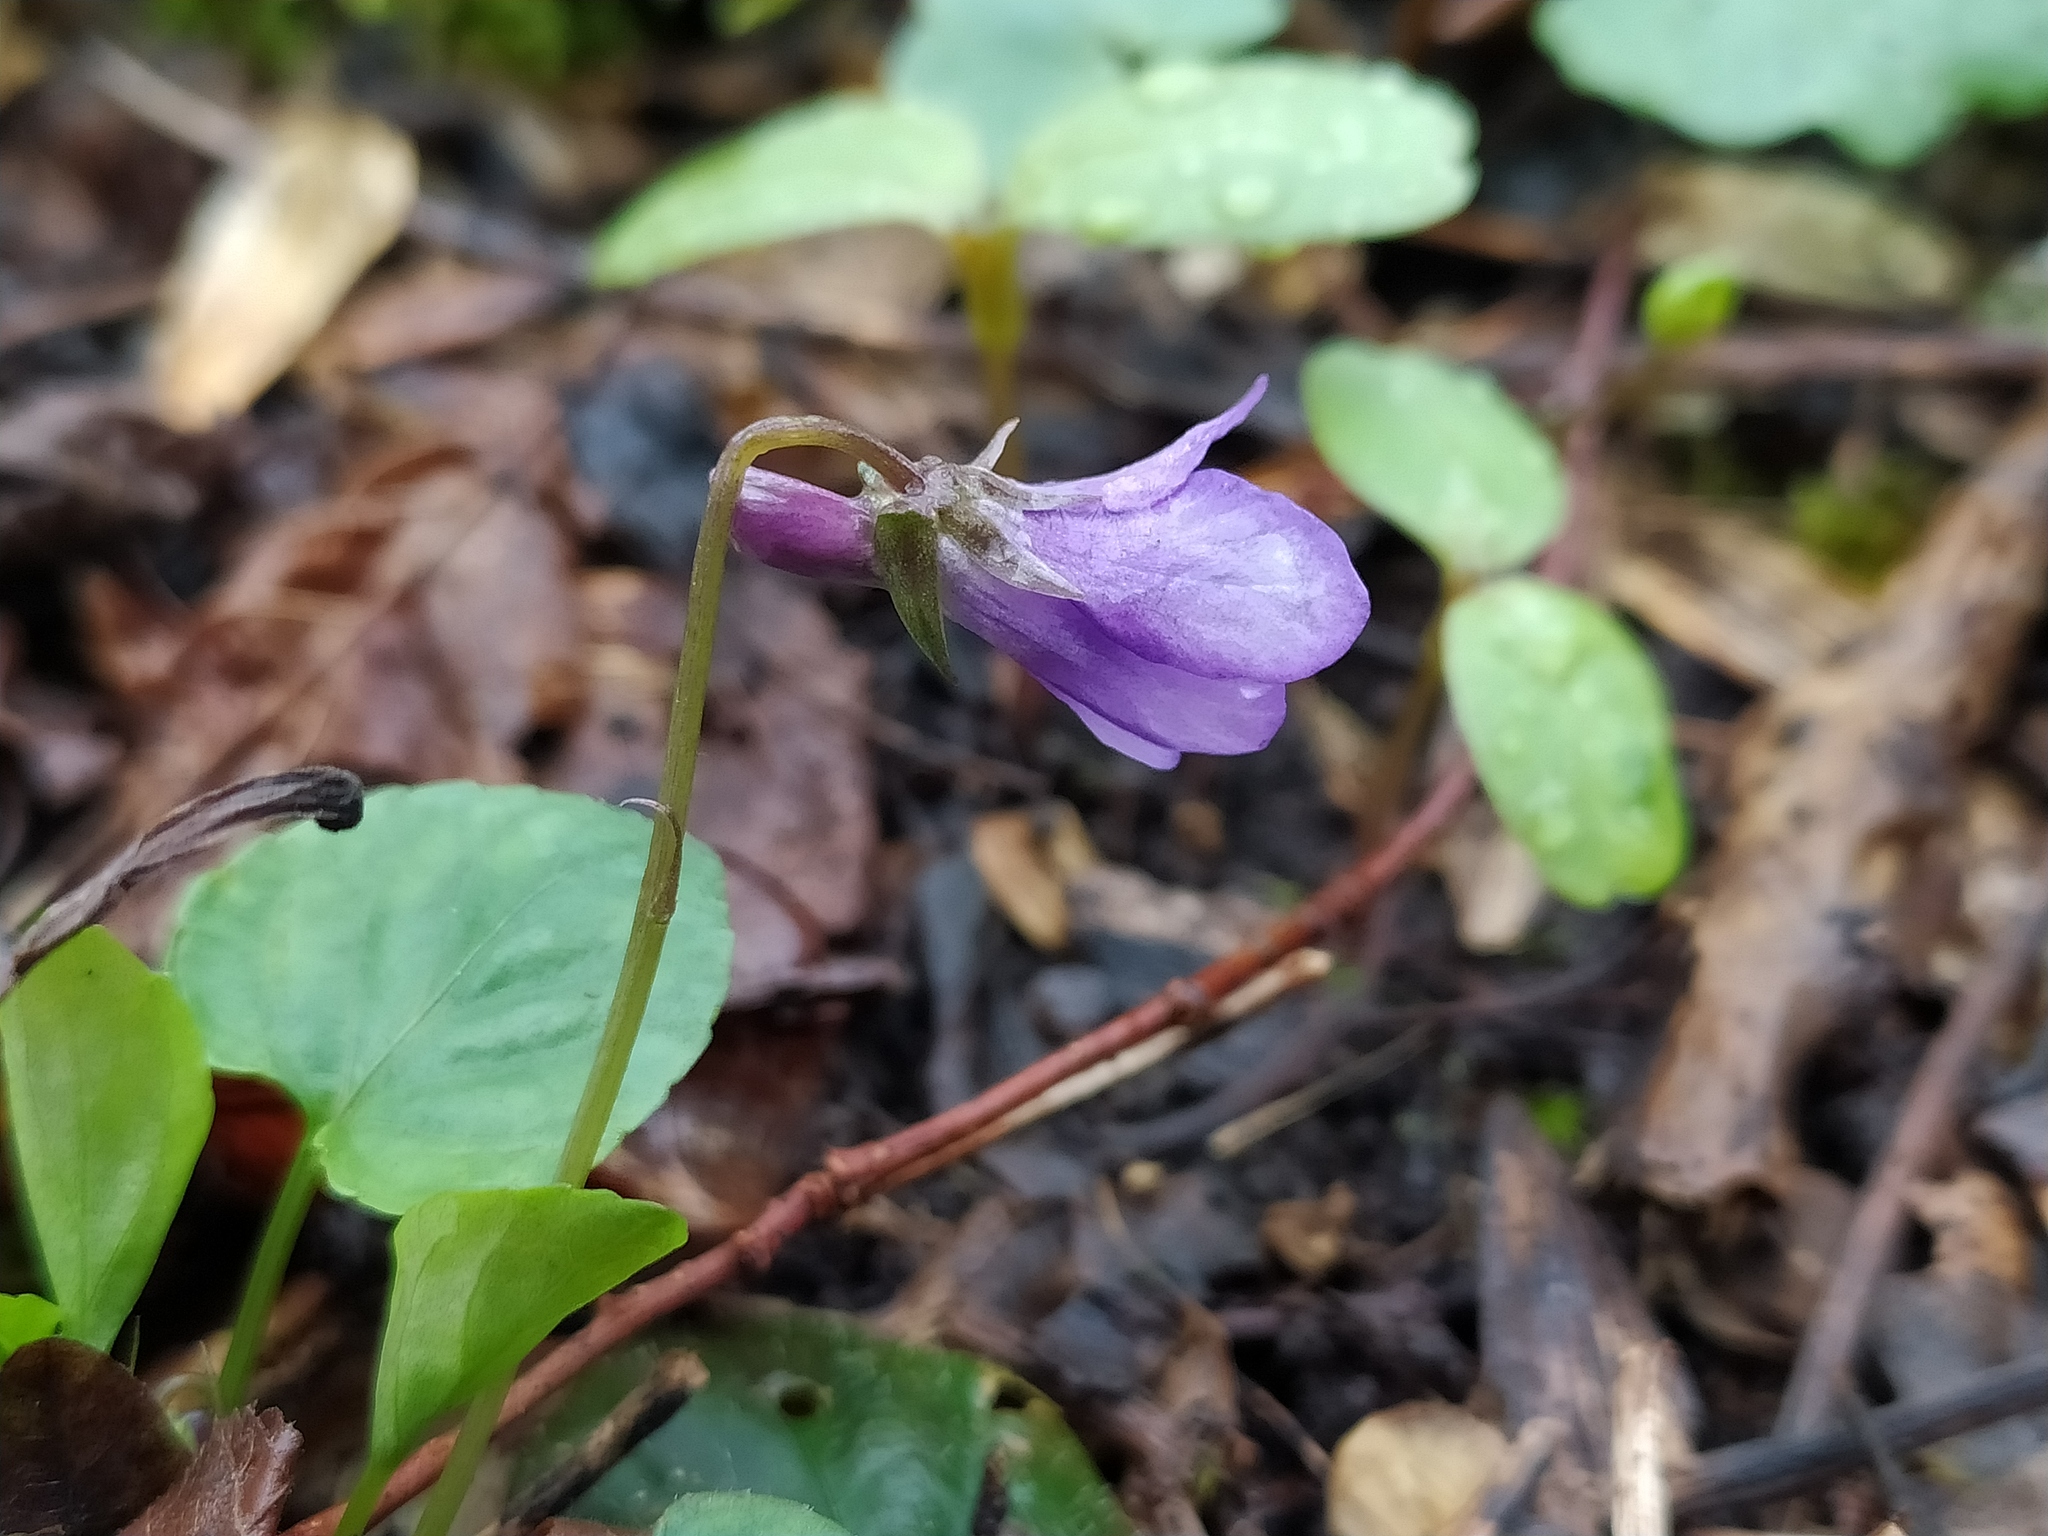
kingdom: Plantae
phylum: Tracheophyta
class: Magnoliopsida
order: Malpighiales
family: Violaceae
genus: Viola
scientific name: Viola reichenbachiana
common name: Early dog-violet
